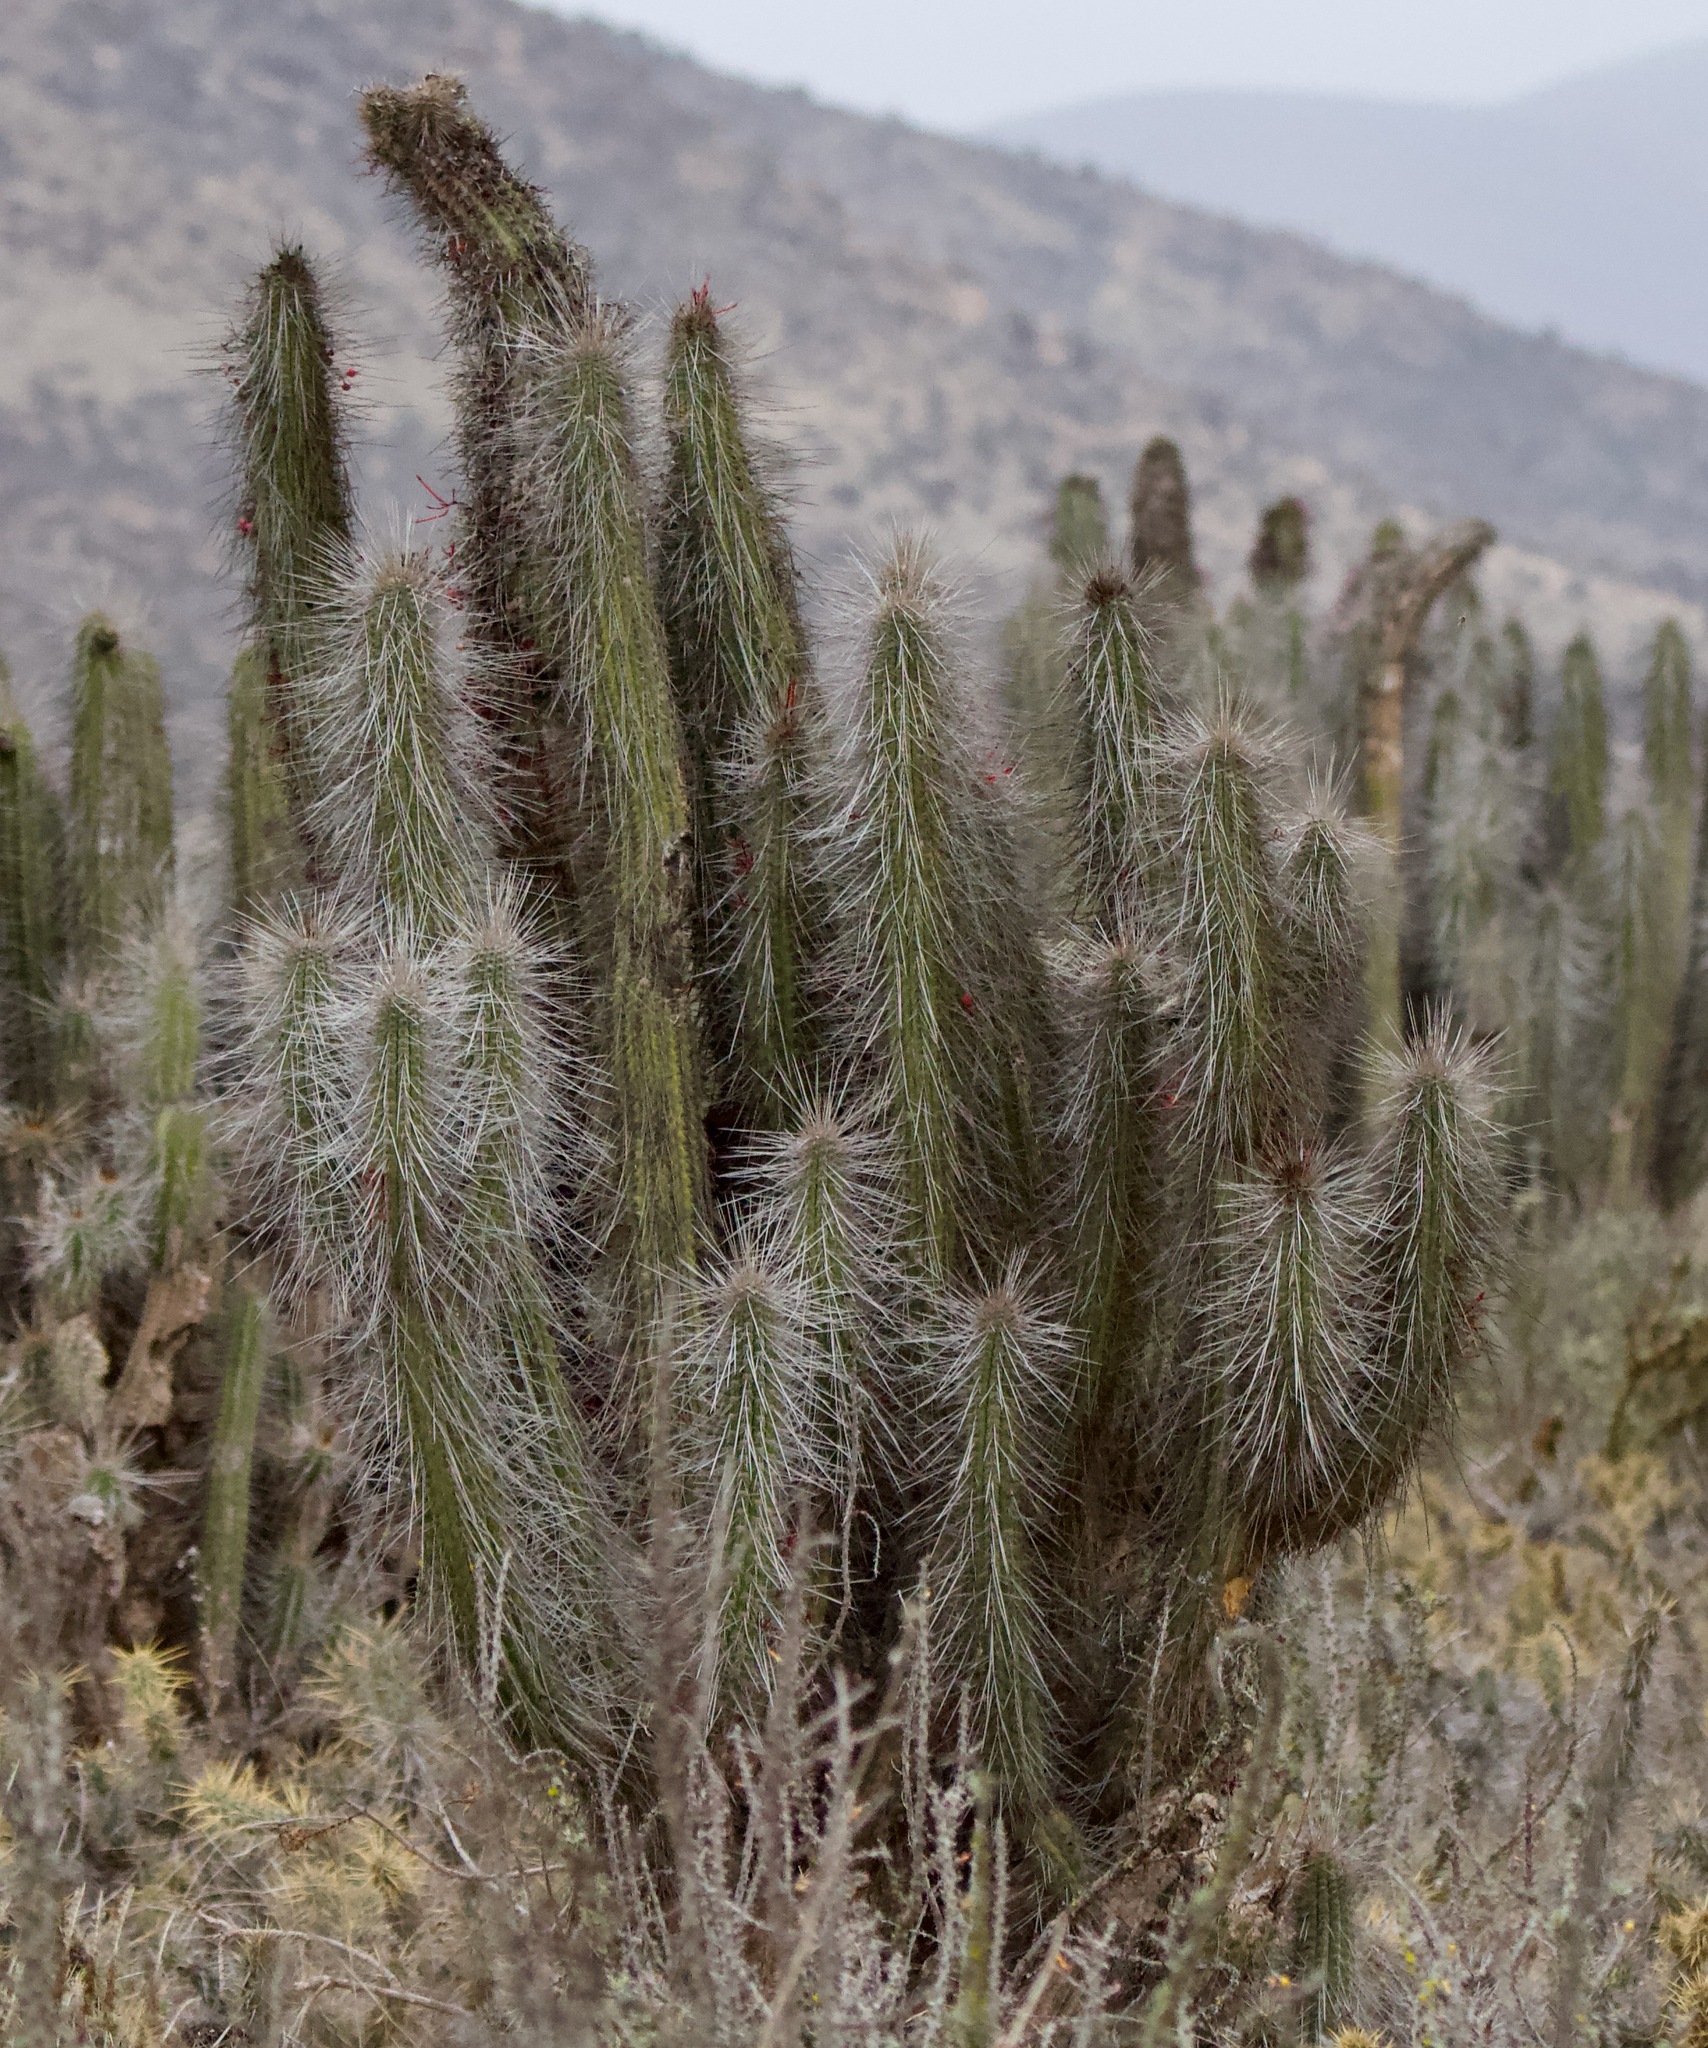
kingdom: Plantae
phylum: Tracheophyta
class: Magnoliopsida
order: Caryophyllales
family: Cactaceae
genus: Eulychnia
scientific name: Eulychnia breviflora
